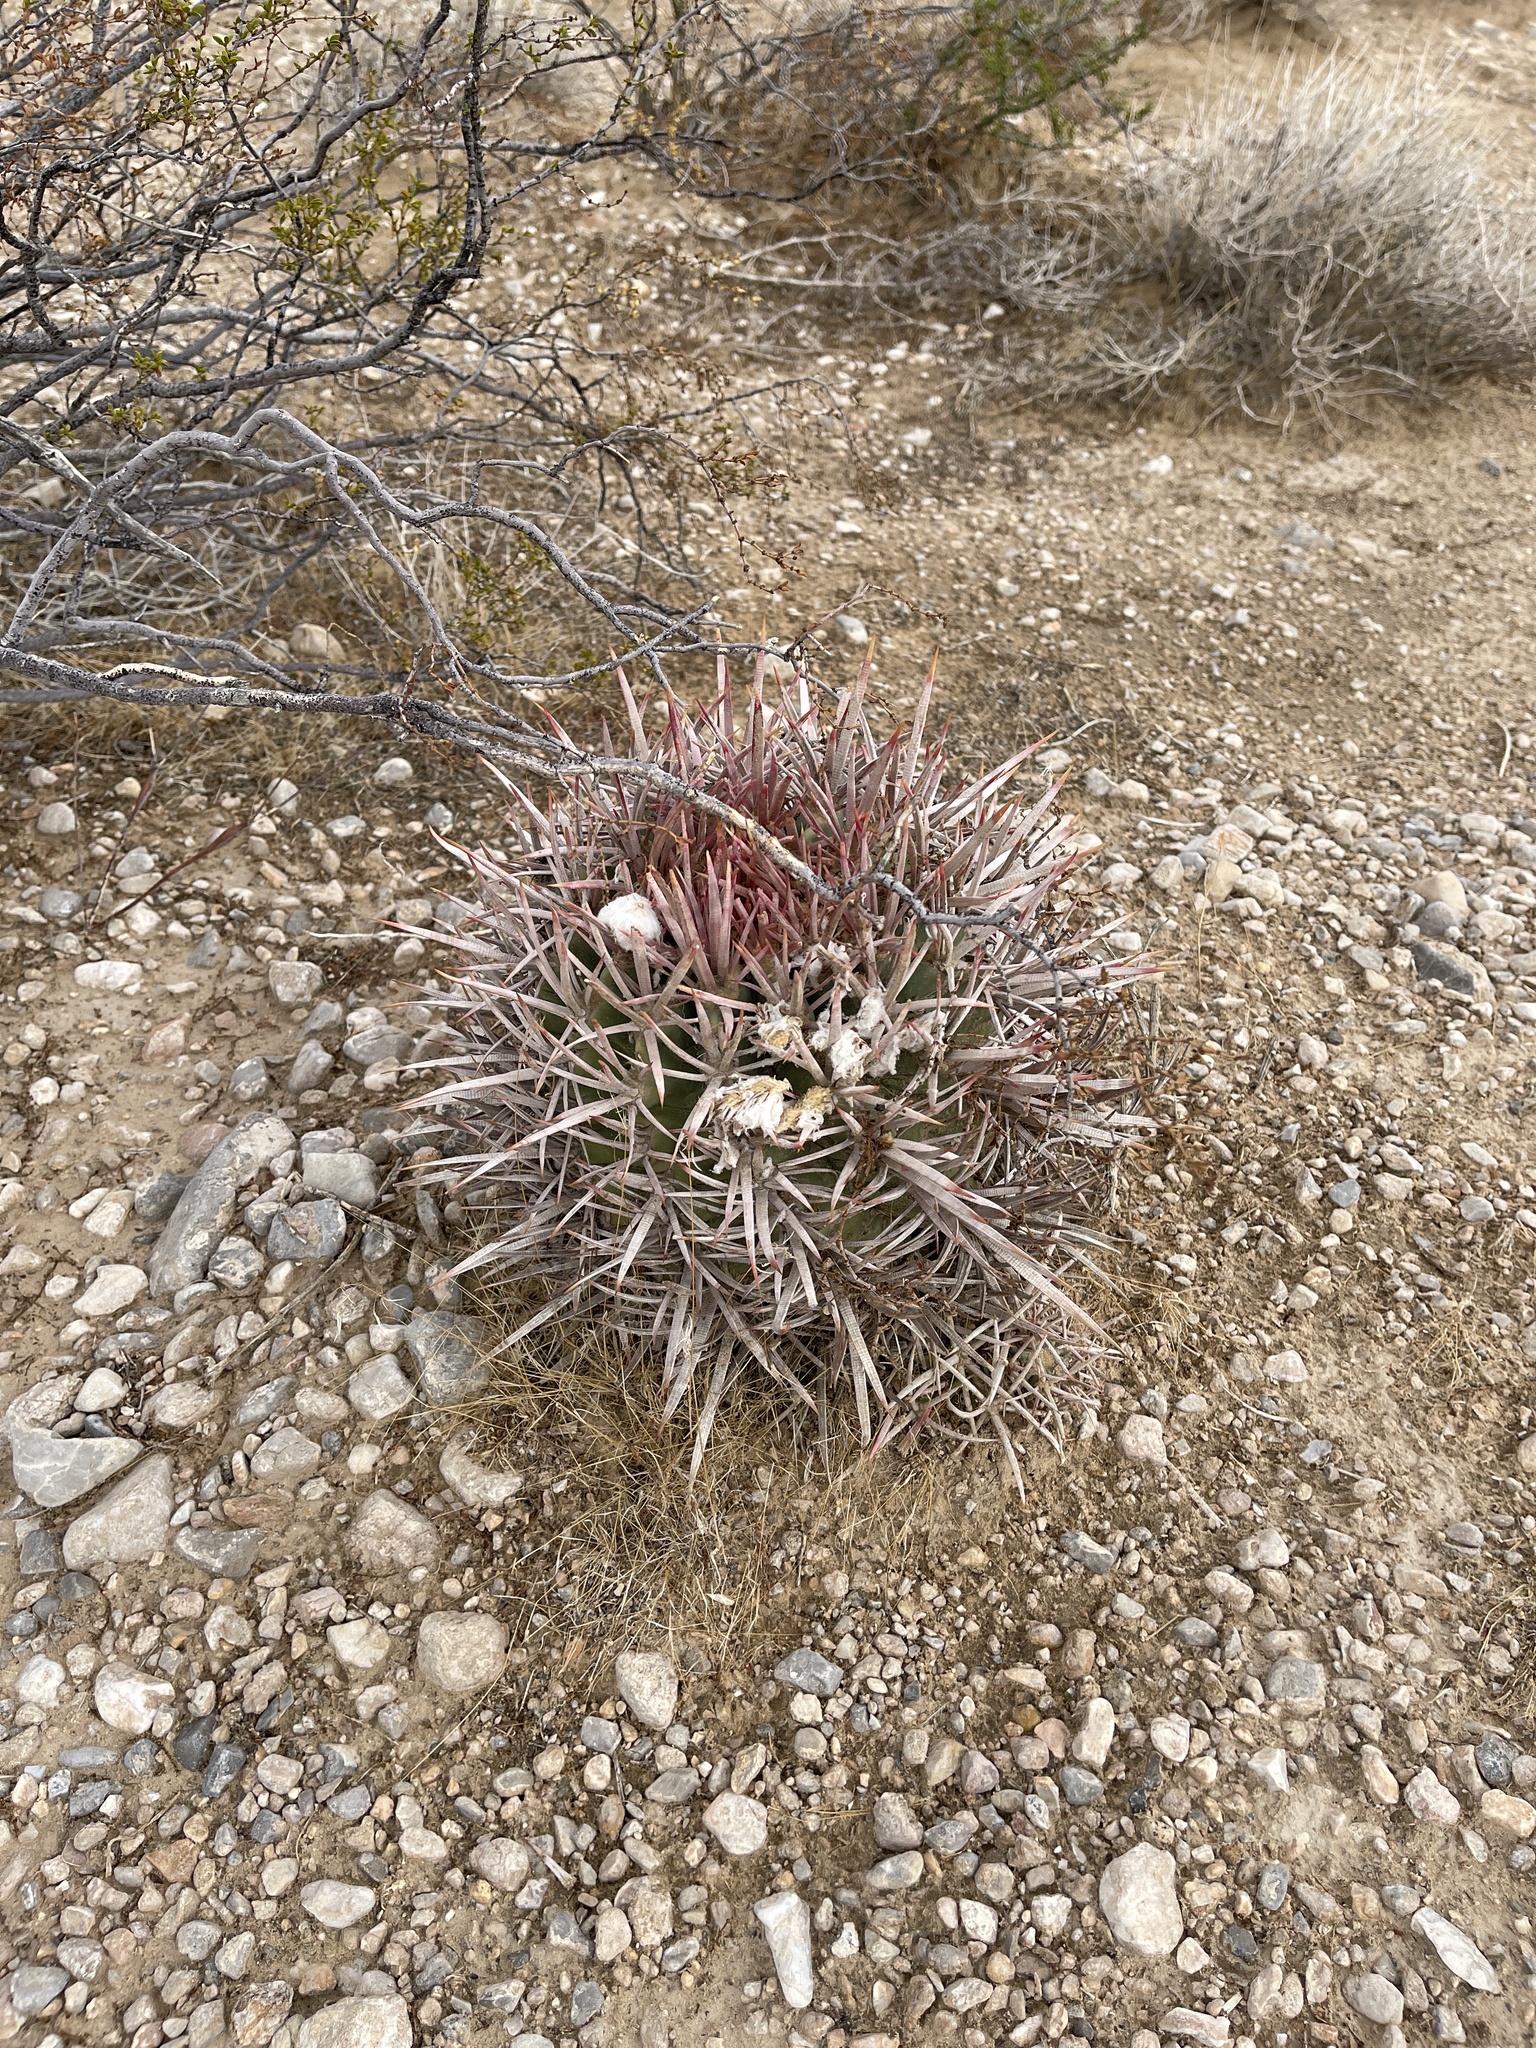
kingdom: Plantae
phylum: Tracheophyta
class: Magnoliopsida
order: Caryophyllales
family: Cactaceae
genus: Echinocactus
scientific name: Echinocactus polycephalus
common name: Cottontop cactus
